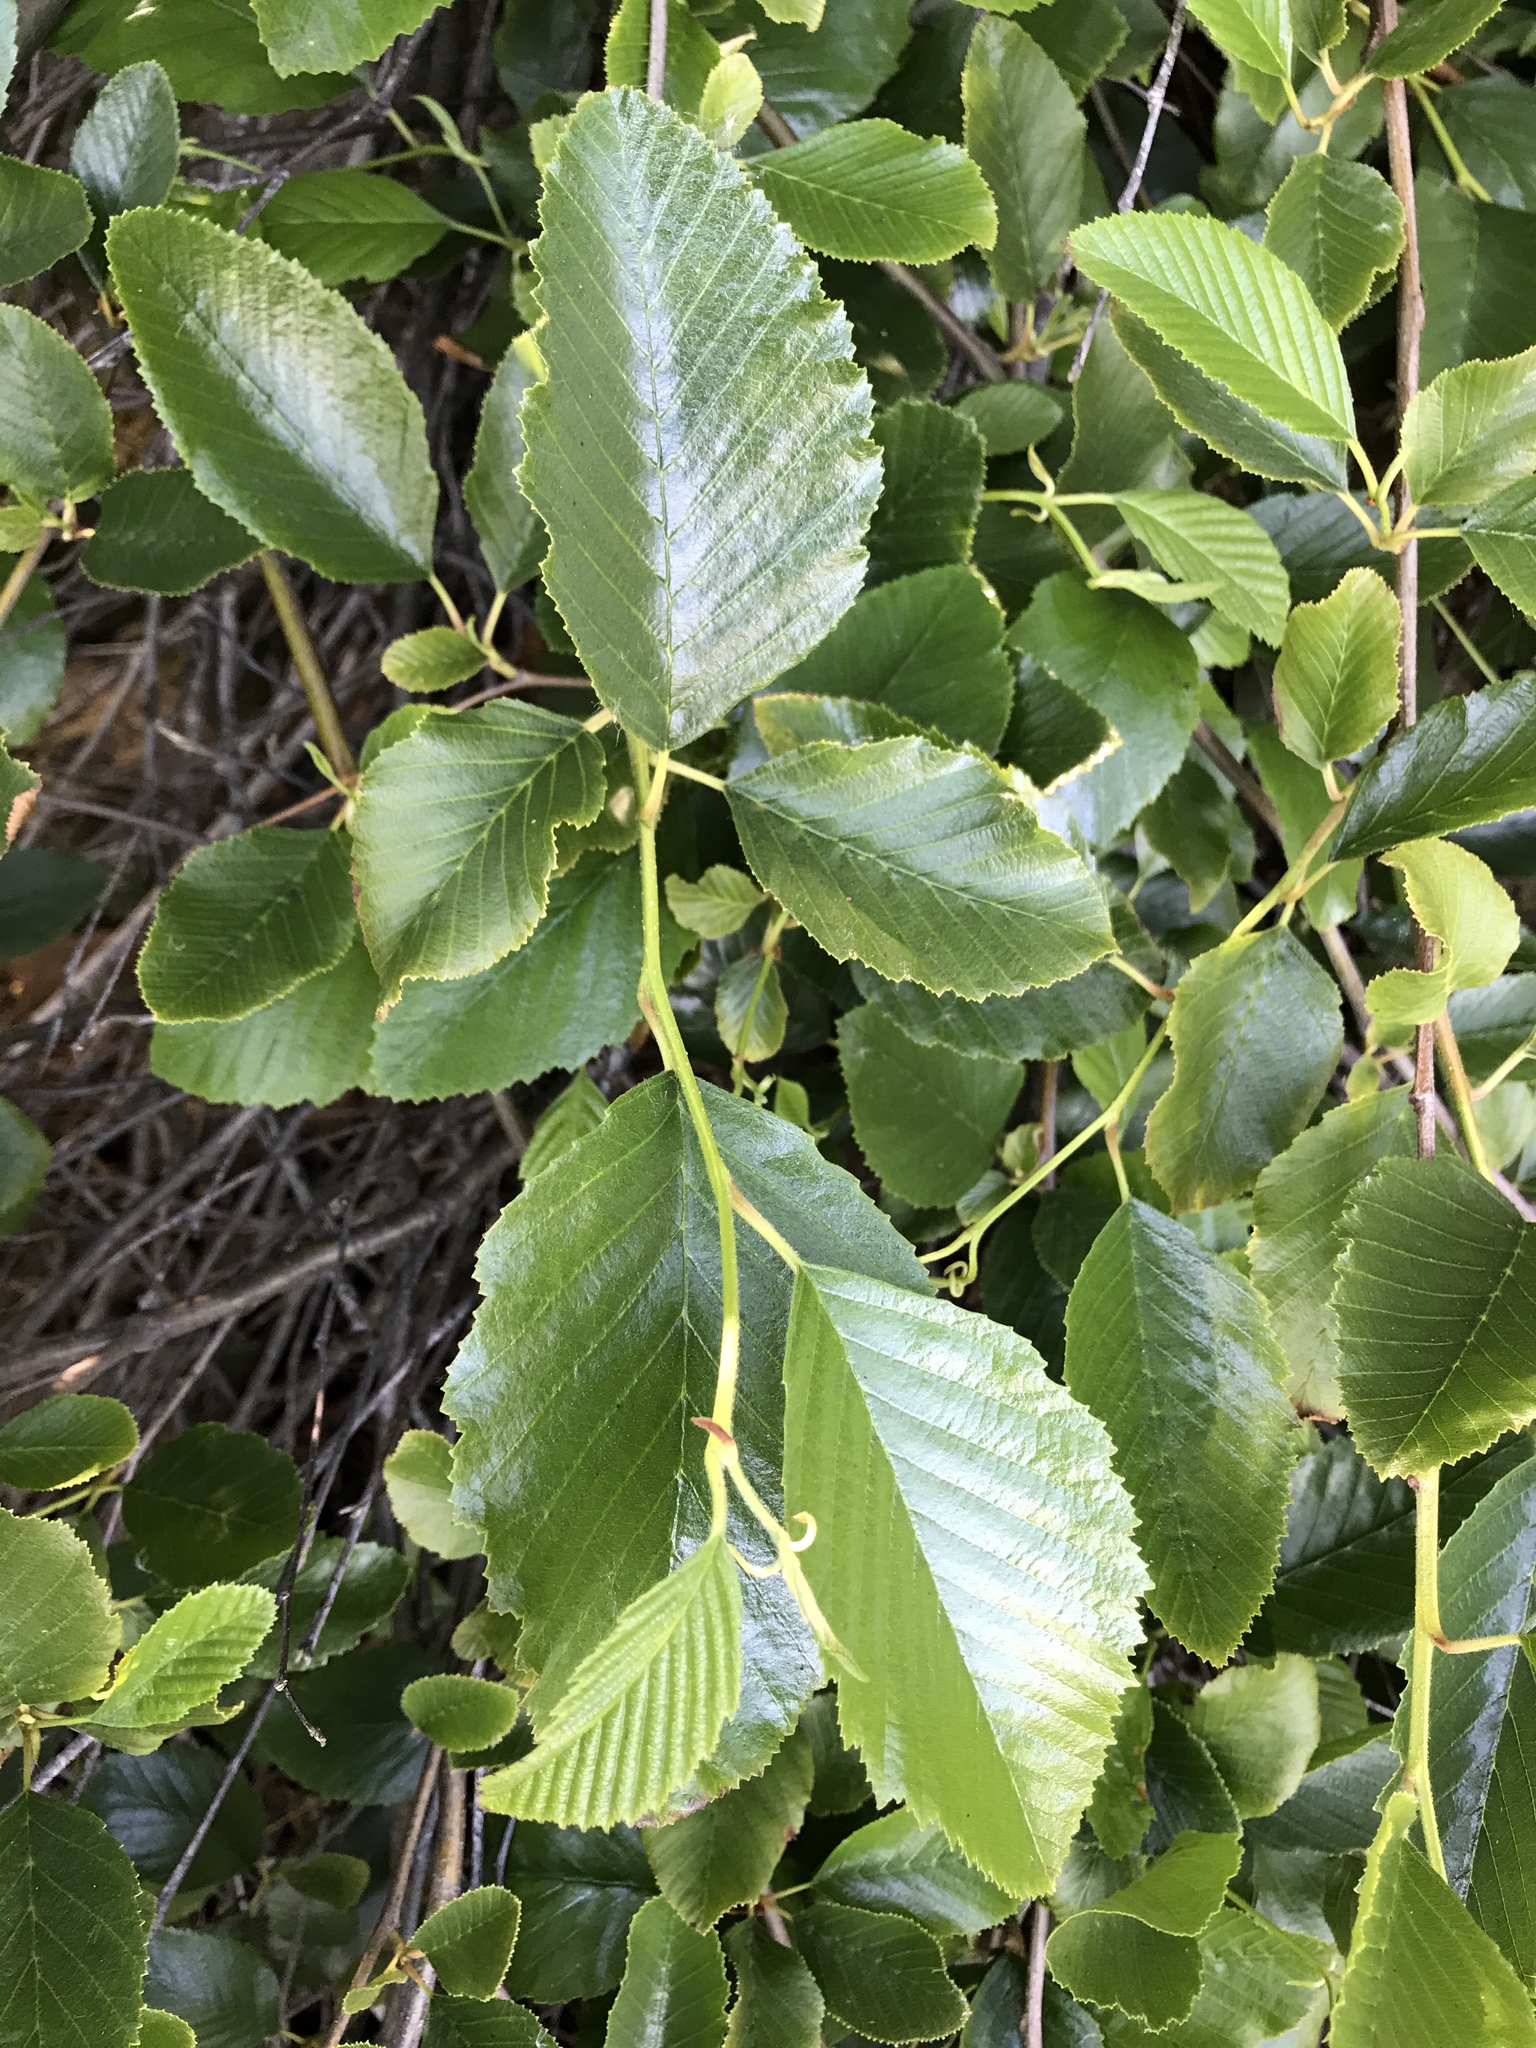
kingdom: Plantae
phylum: Tracheophyta
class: Magnoliopsida
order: Fagales
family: Betulaceae
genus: Alnus
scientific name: Alnus rhombifolia
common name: California alder
